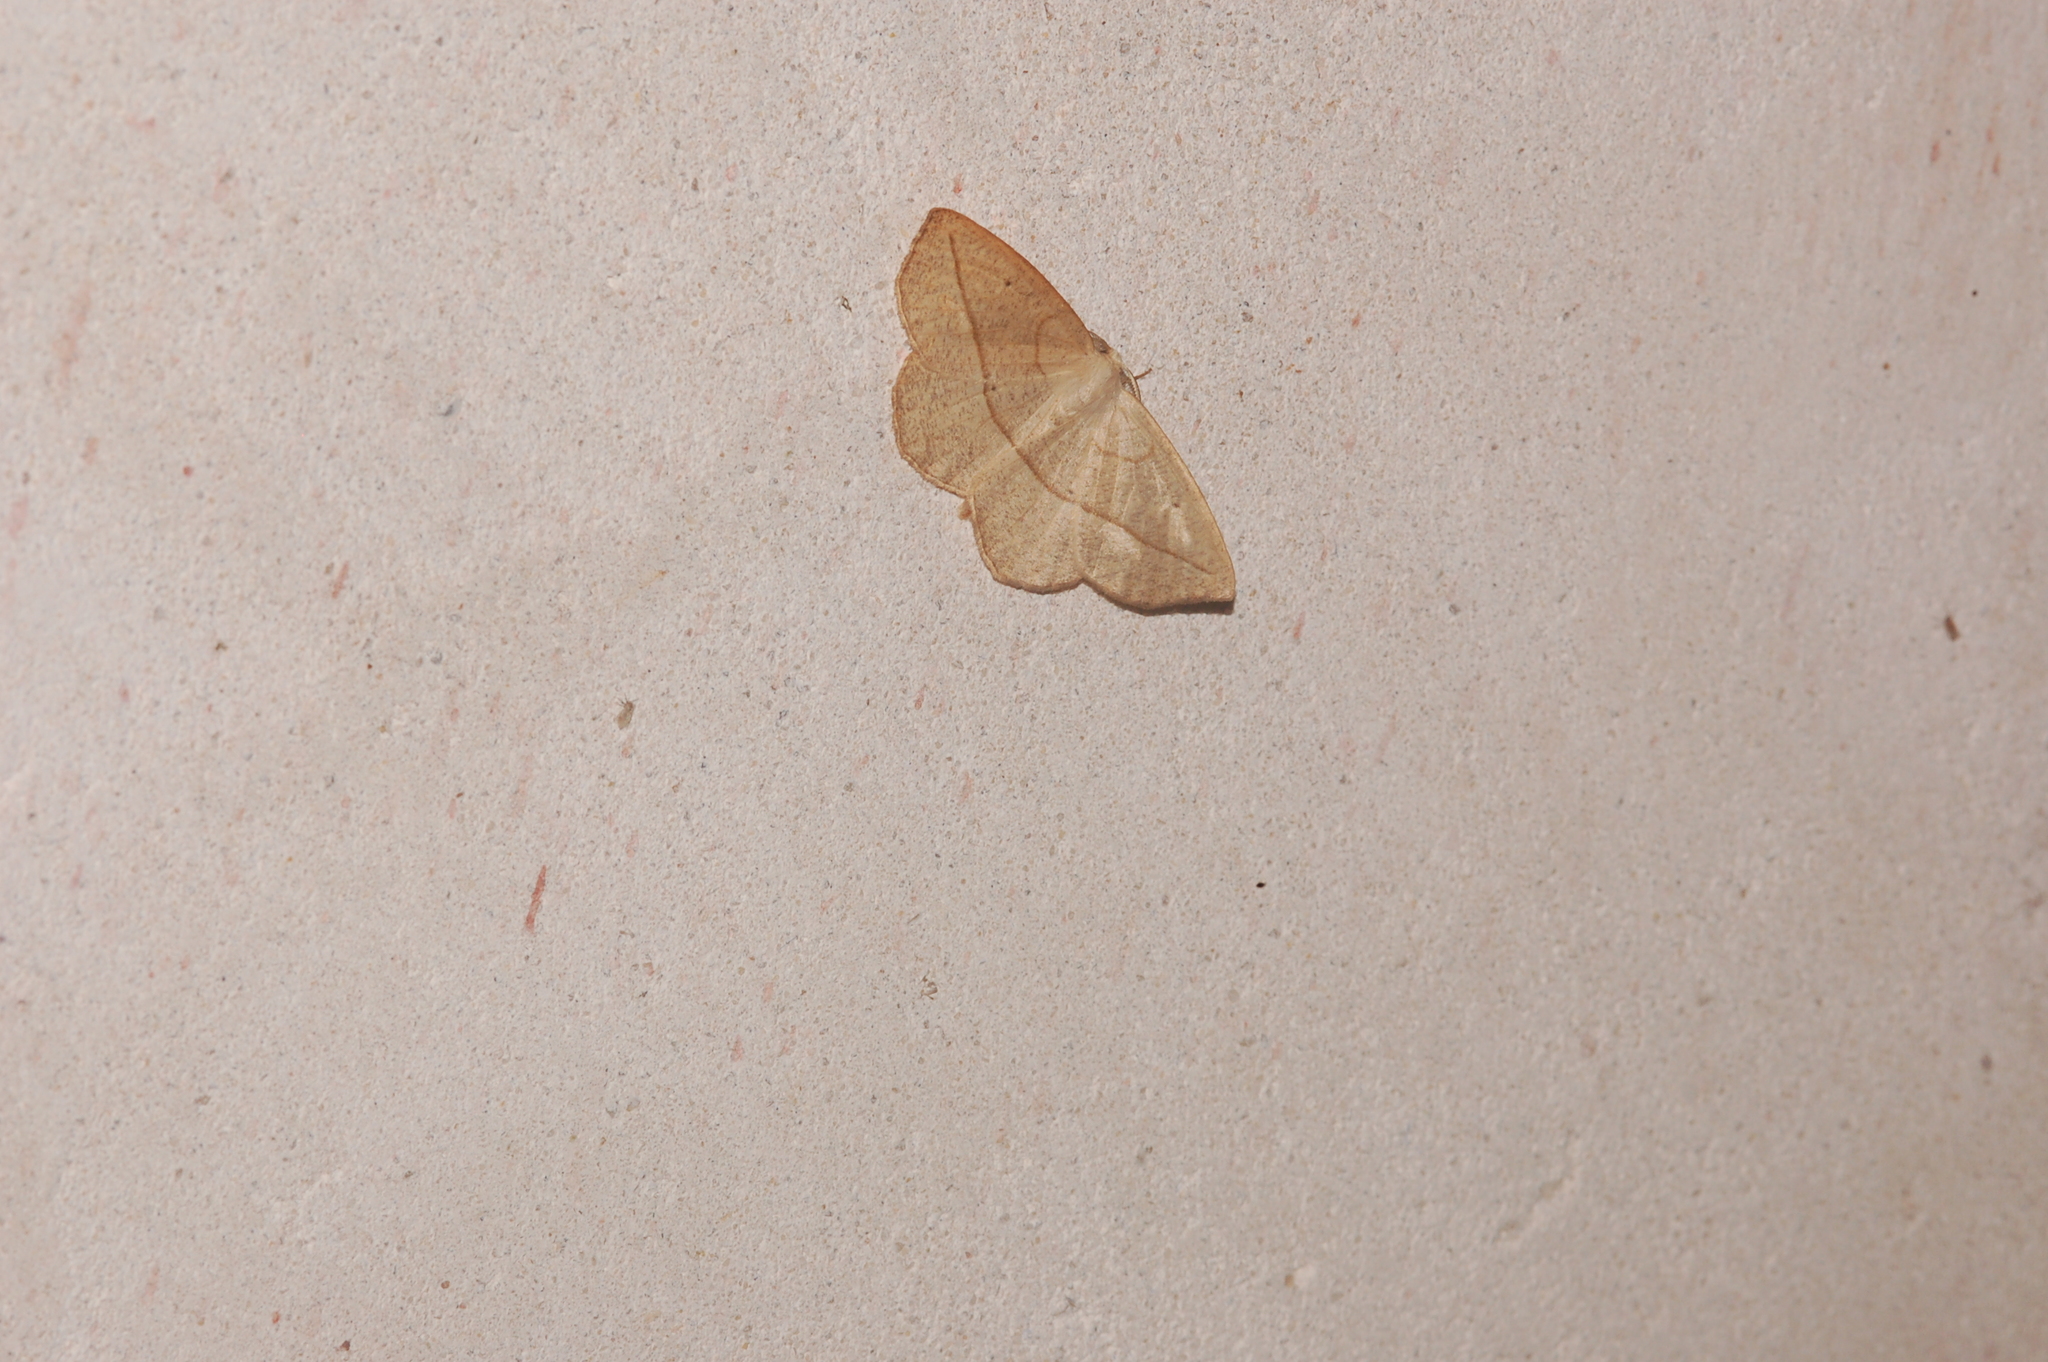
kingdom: Animalia
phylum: Arthropoda
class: Insecta
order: Lepidoptera
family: Geometridae
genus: Eusarca
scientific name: Eusarca confusaria
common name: Confused eusarca
